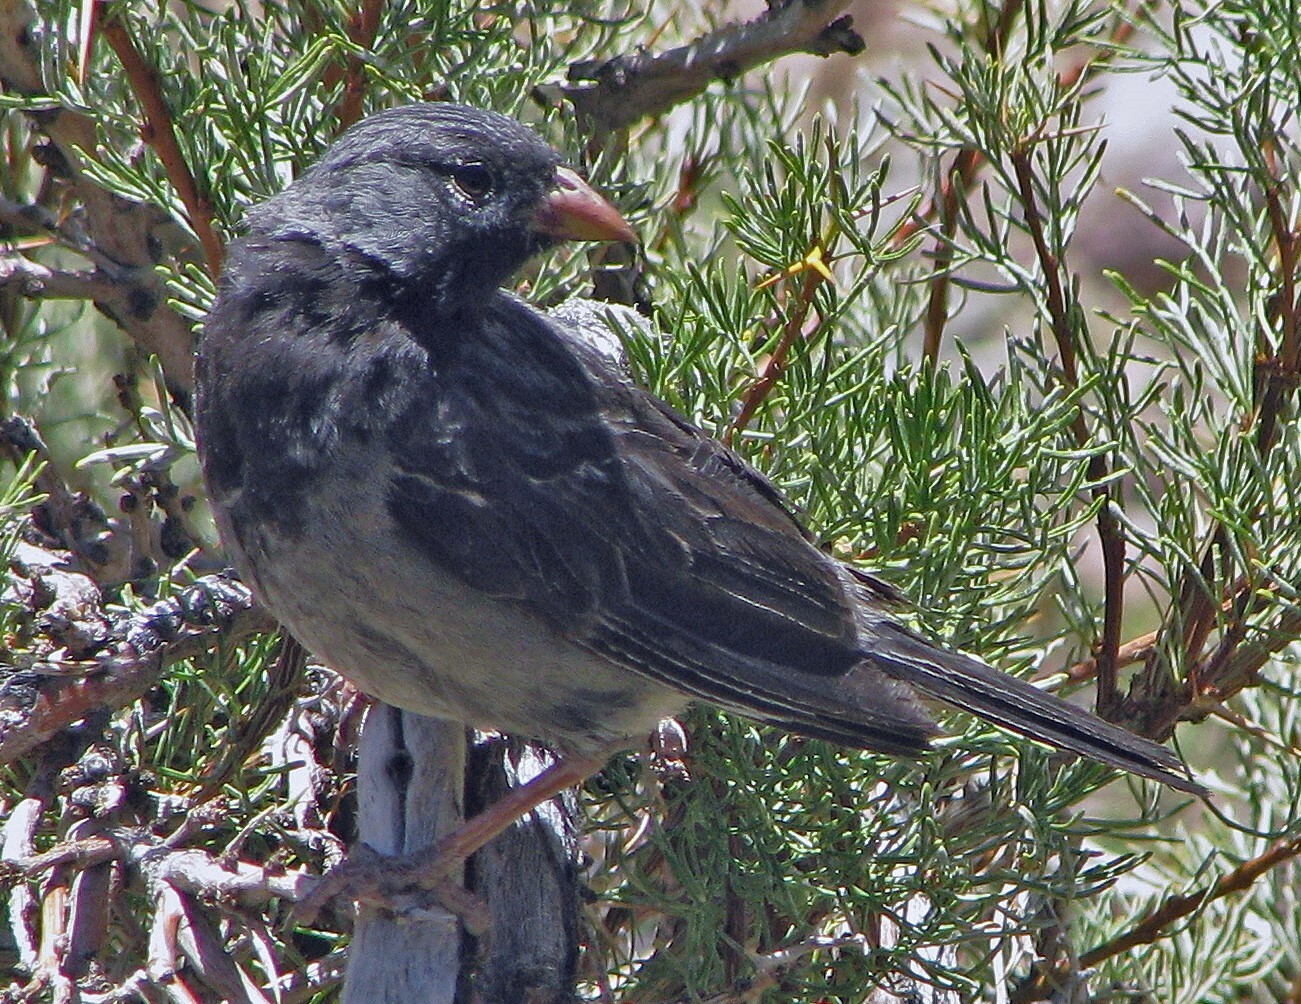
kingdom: Animalia
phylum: Chordata
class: Aves
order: Passeriformes
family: Thraupidae
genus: Rhopospina
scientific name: Rhopospina fruticeti
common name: Mourning sierra finch
